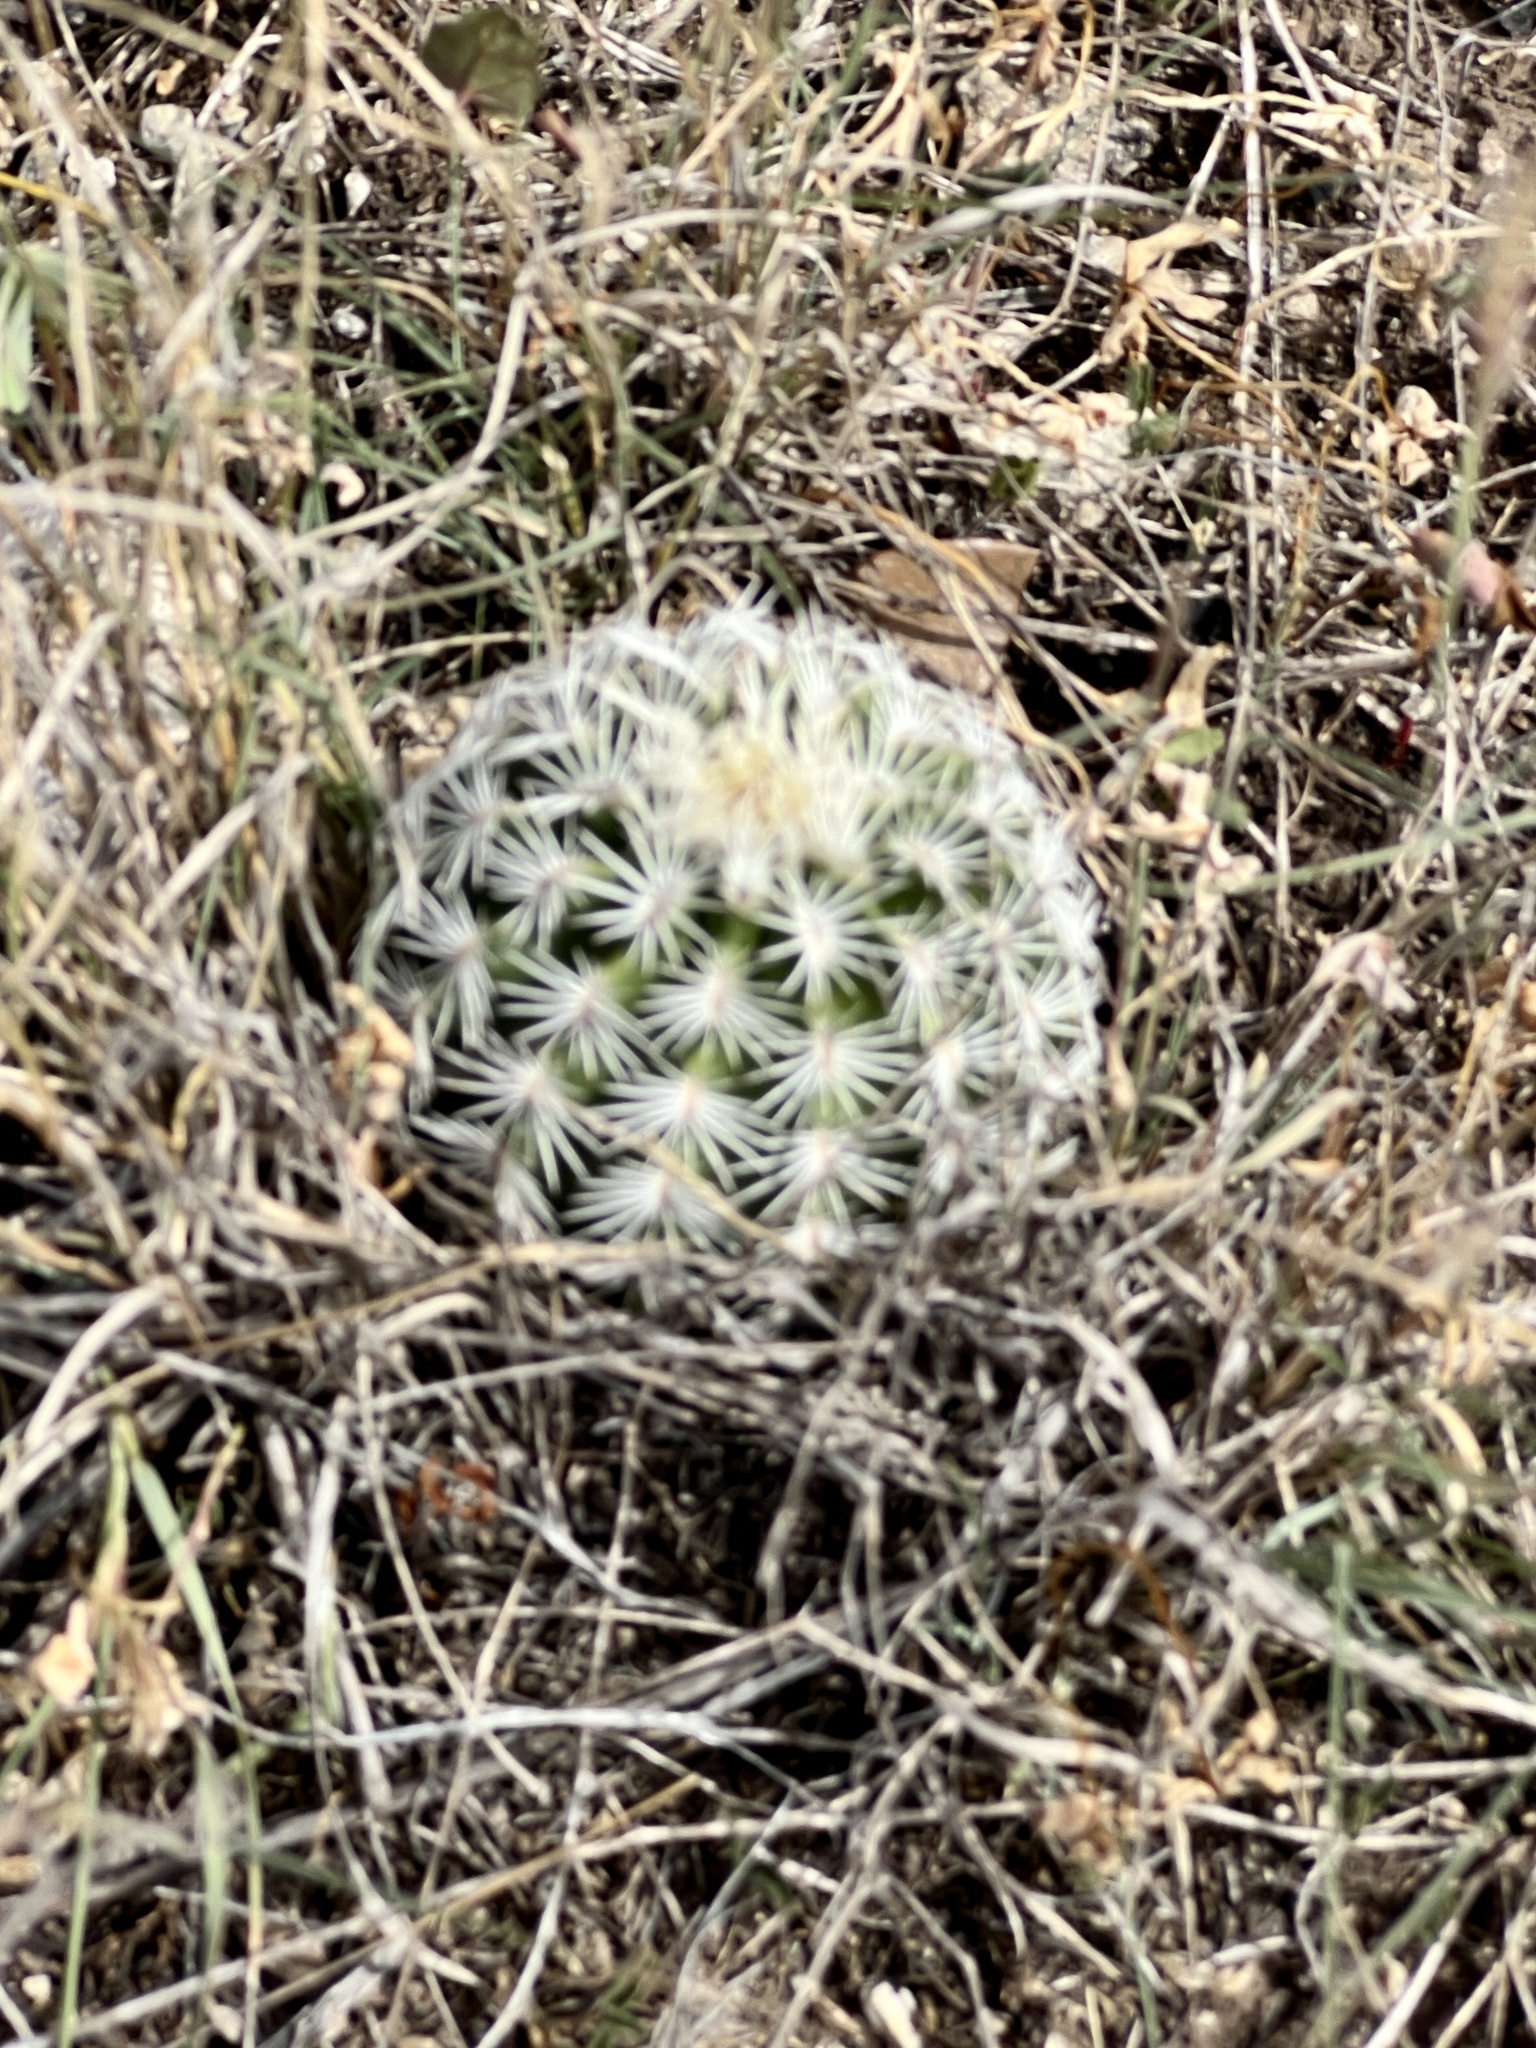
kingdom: Plantae
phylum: Tracheophyta
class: Magnoliopsida
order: Caryophyllales
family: Cactaceae
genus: Echinocereus
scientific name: Echinocereus reichenbachii
